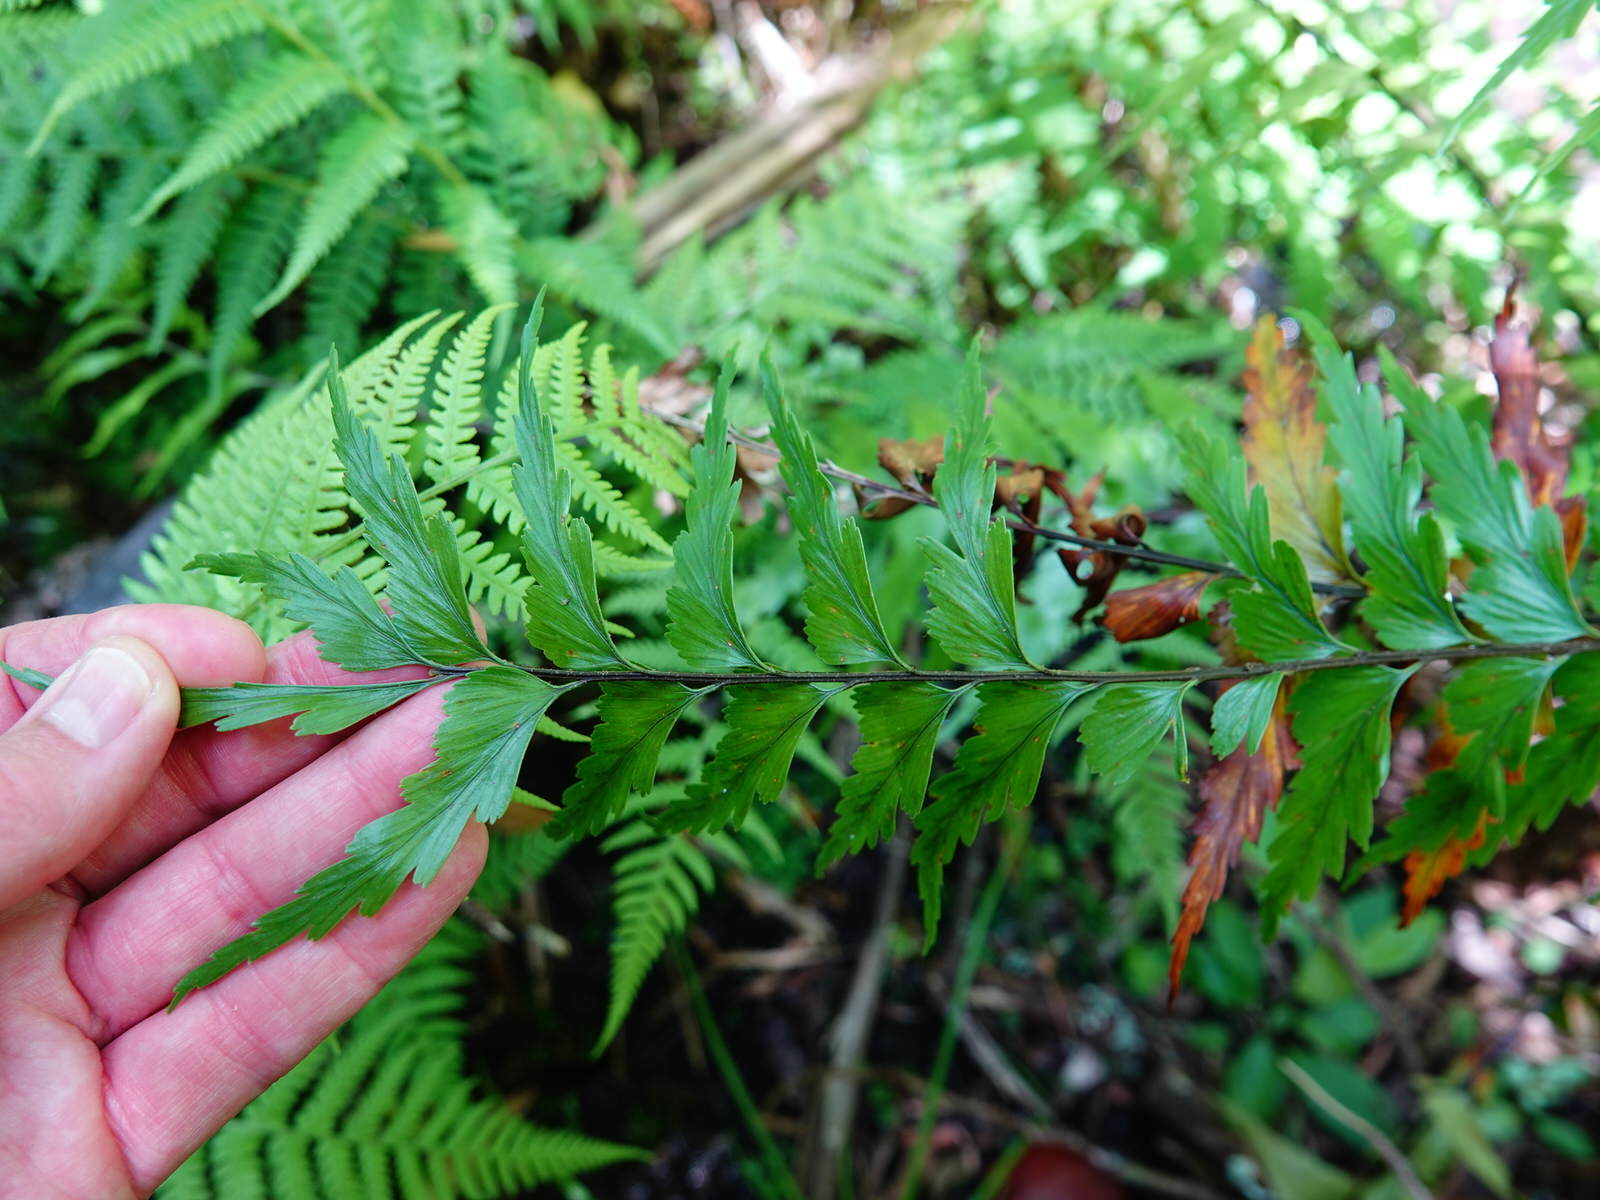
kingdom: Plantae
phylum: Tracheophyta
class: Polypodiopsida
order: Polypodiales
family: Aspleniaceae
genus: Asplenium
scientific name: Asplenium polyodon
